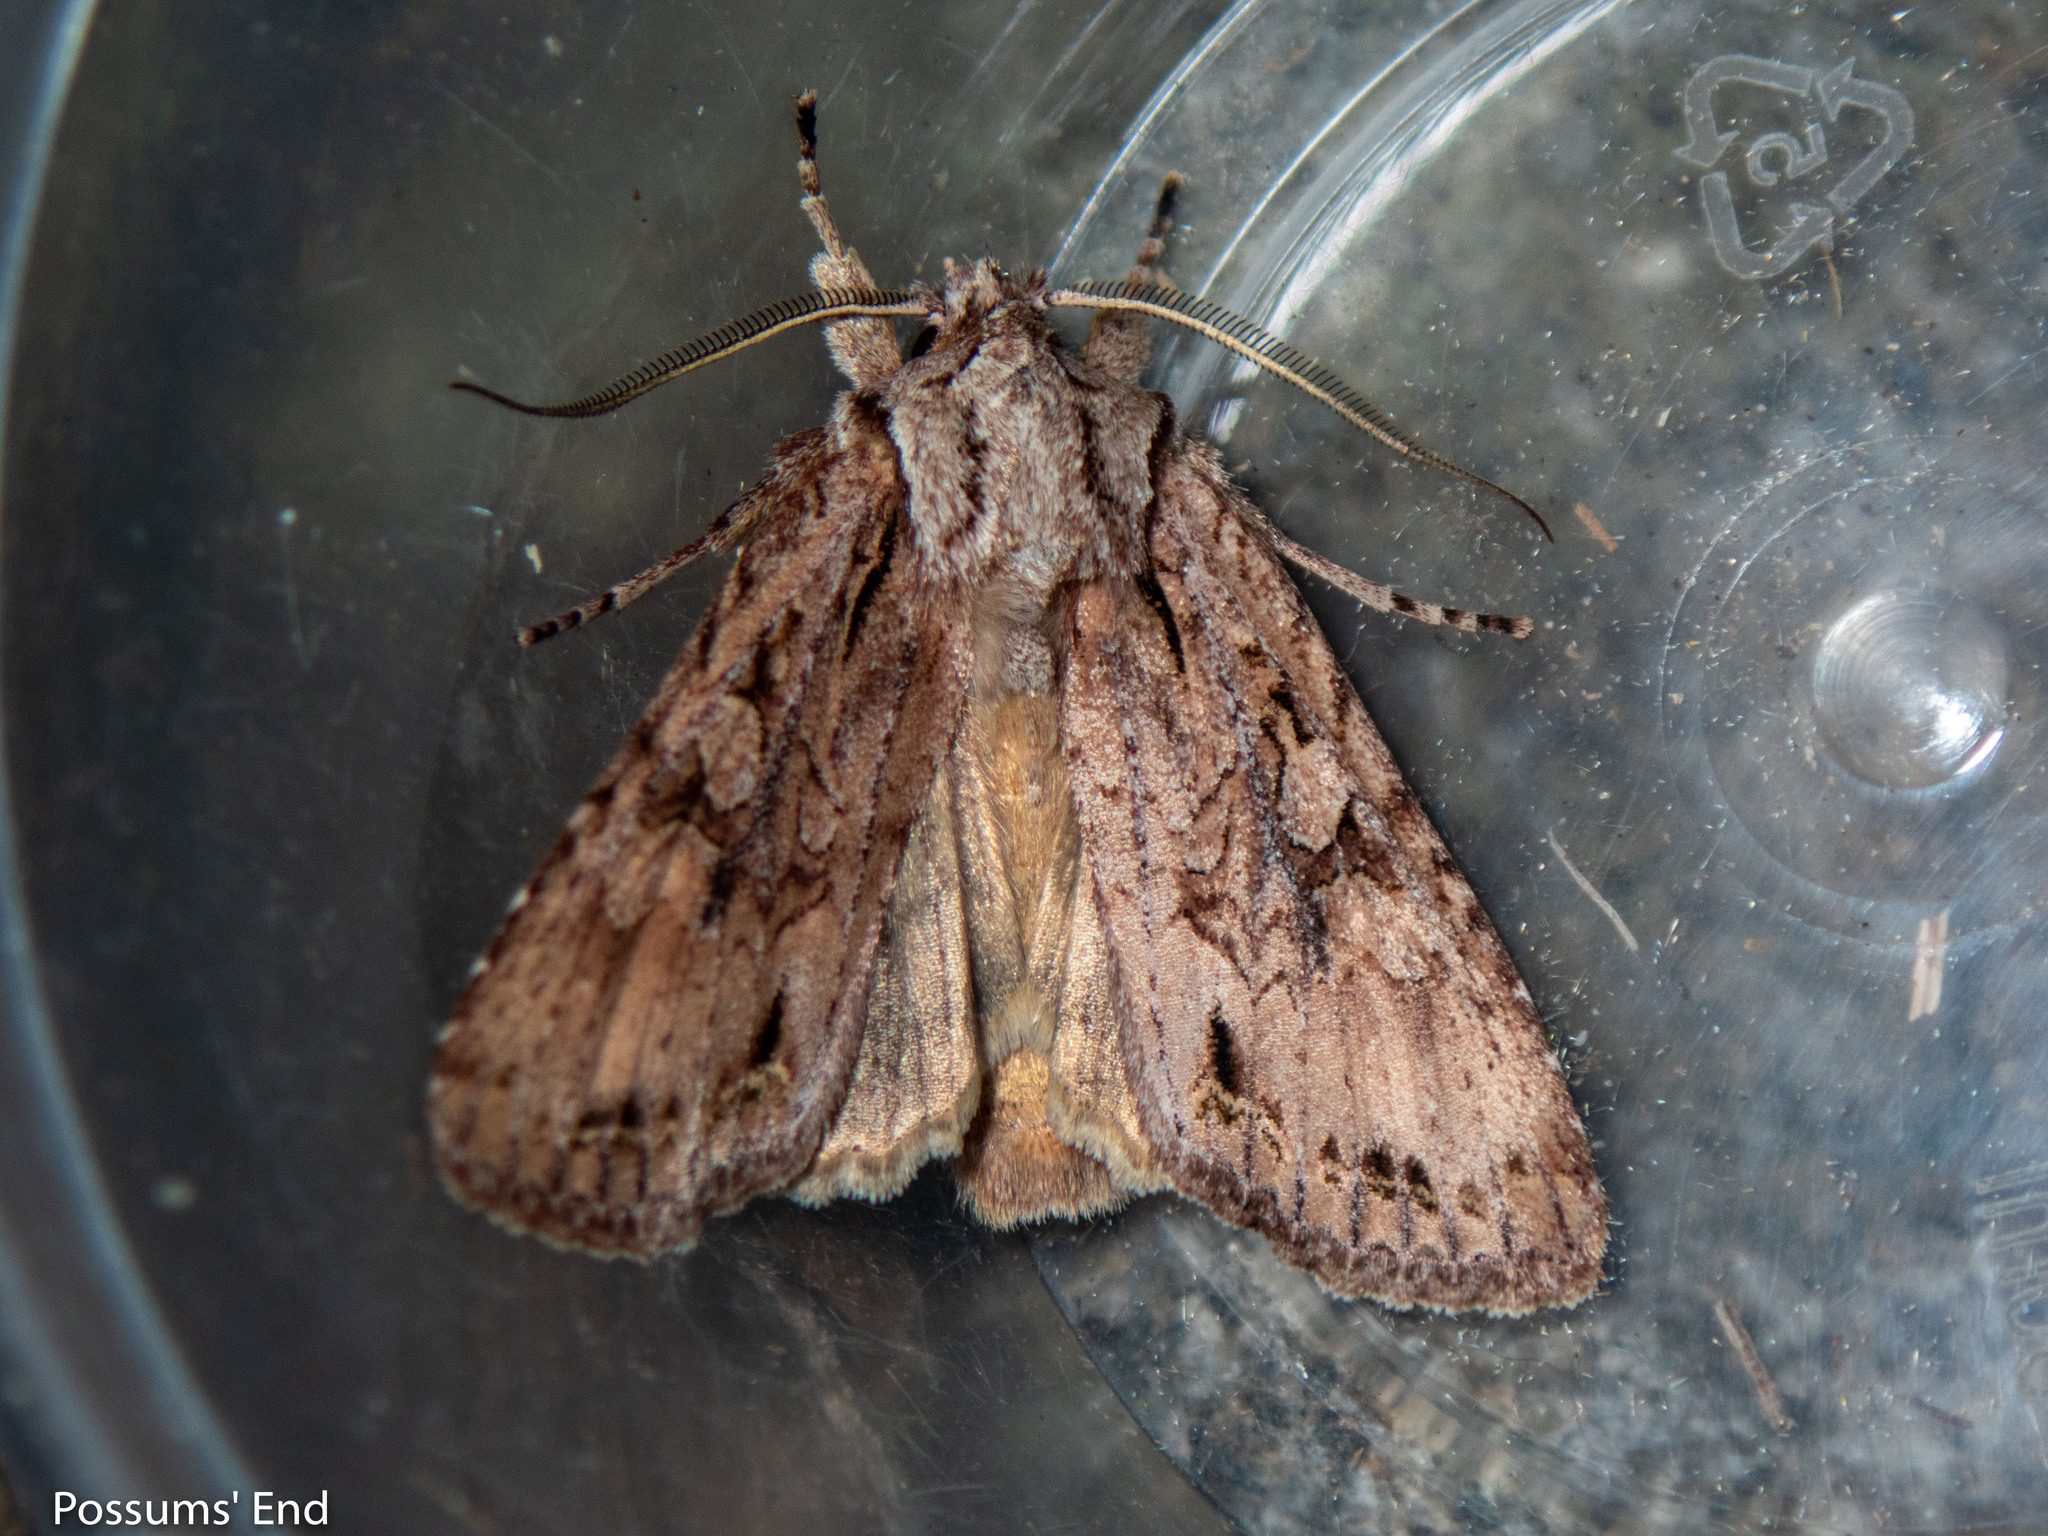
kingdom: Animalia
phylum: Arthropoda
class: Insecta
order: Lepidoptera
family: Noctuidae
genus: Ichneutica
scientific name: Ichneutica
